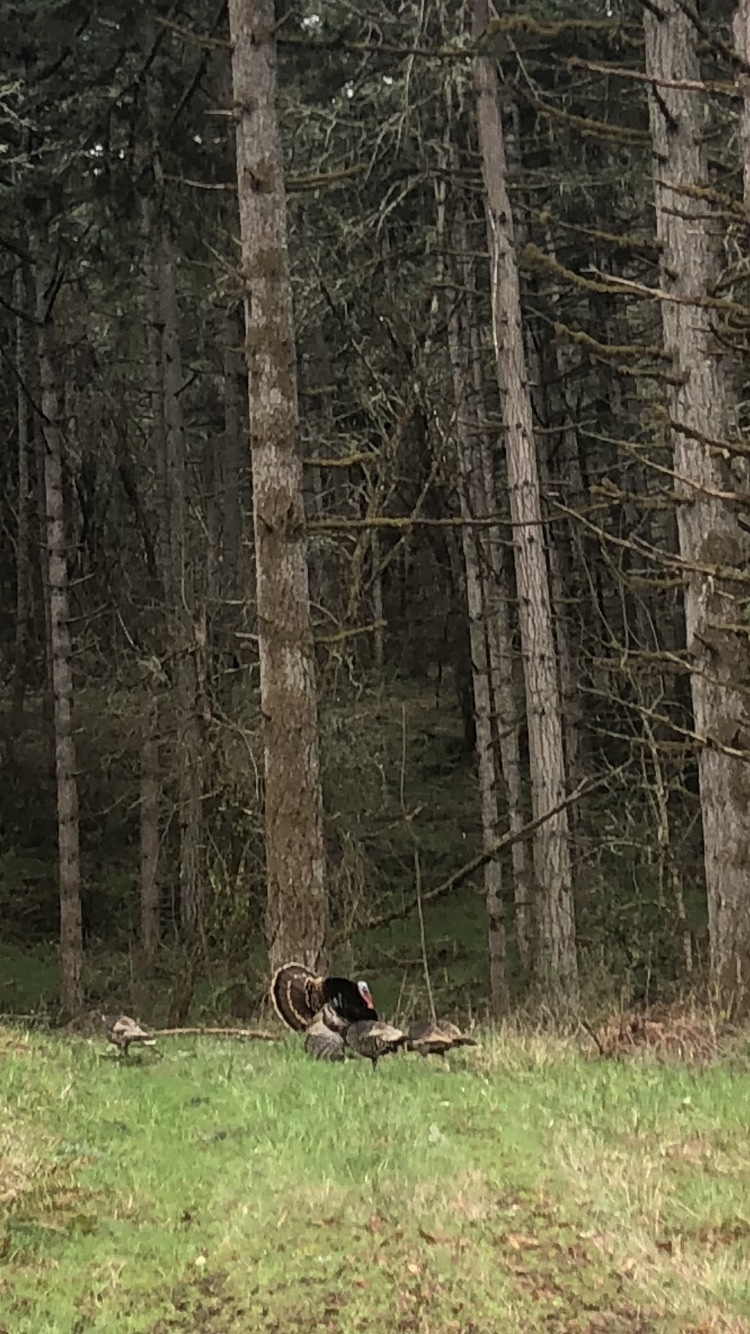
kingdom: Animalia
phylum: Chordata
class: Aves
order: Galliformes
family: Phasianidae
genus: Meleagris
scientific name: Meleagris gallopavo
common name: Wild turkey
